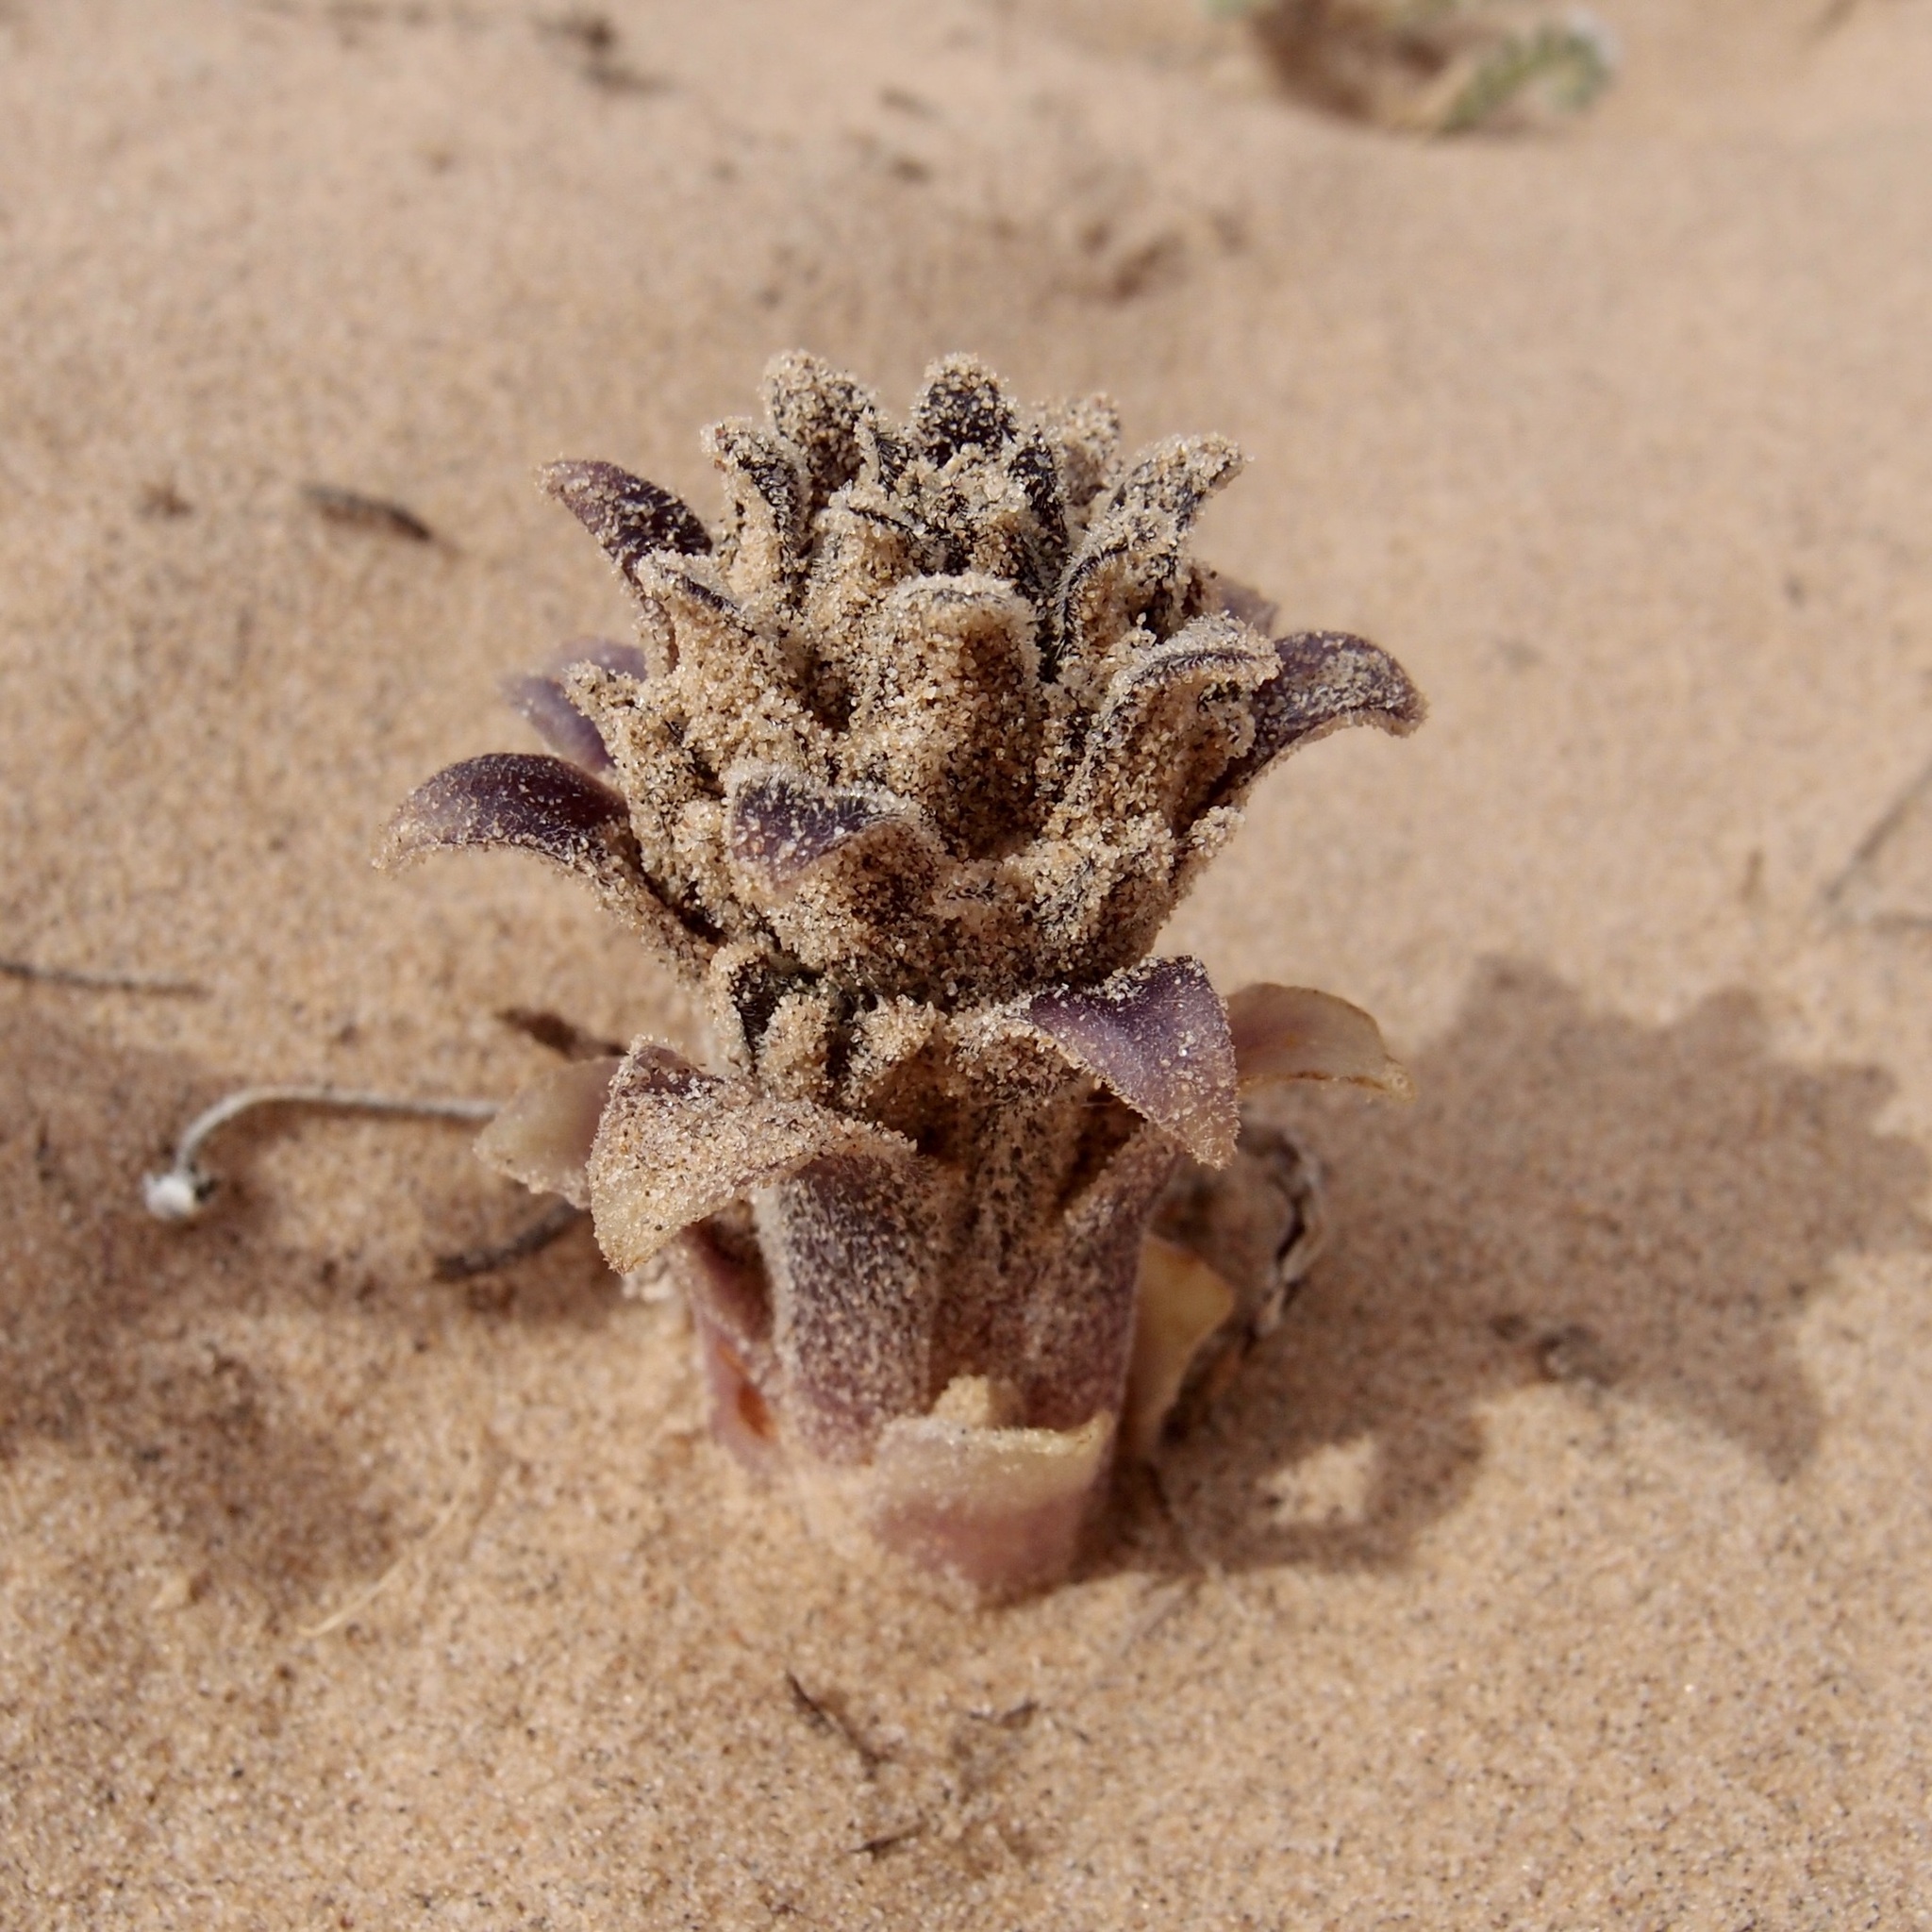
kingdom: Plantae
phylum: Tracheophyta
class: Magnoliopsida
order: Lamiales
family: Orobanchaceae
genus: Aphyllon
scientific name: Aphyllon cooperi
